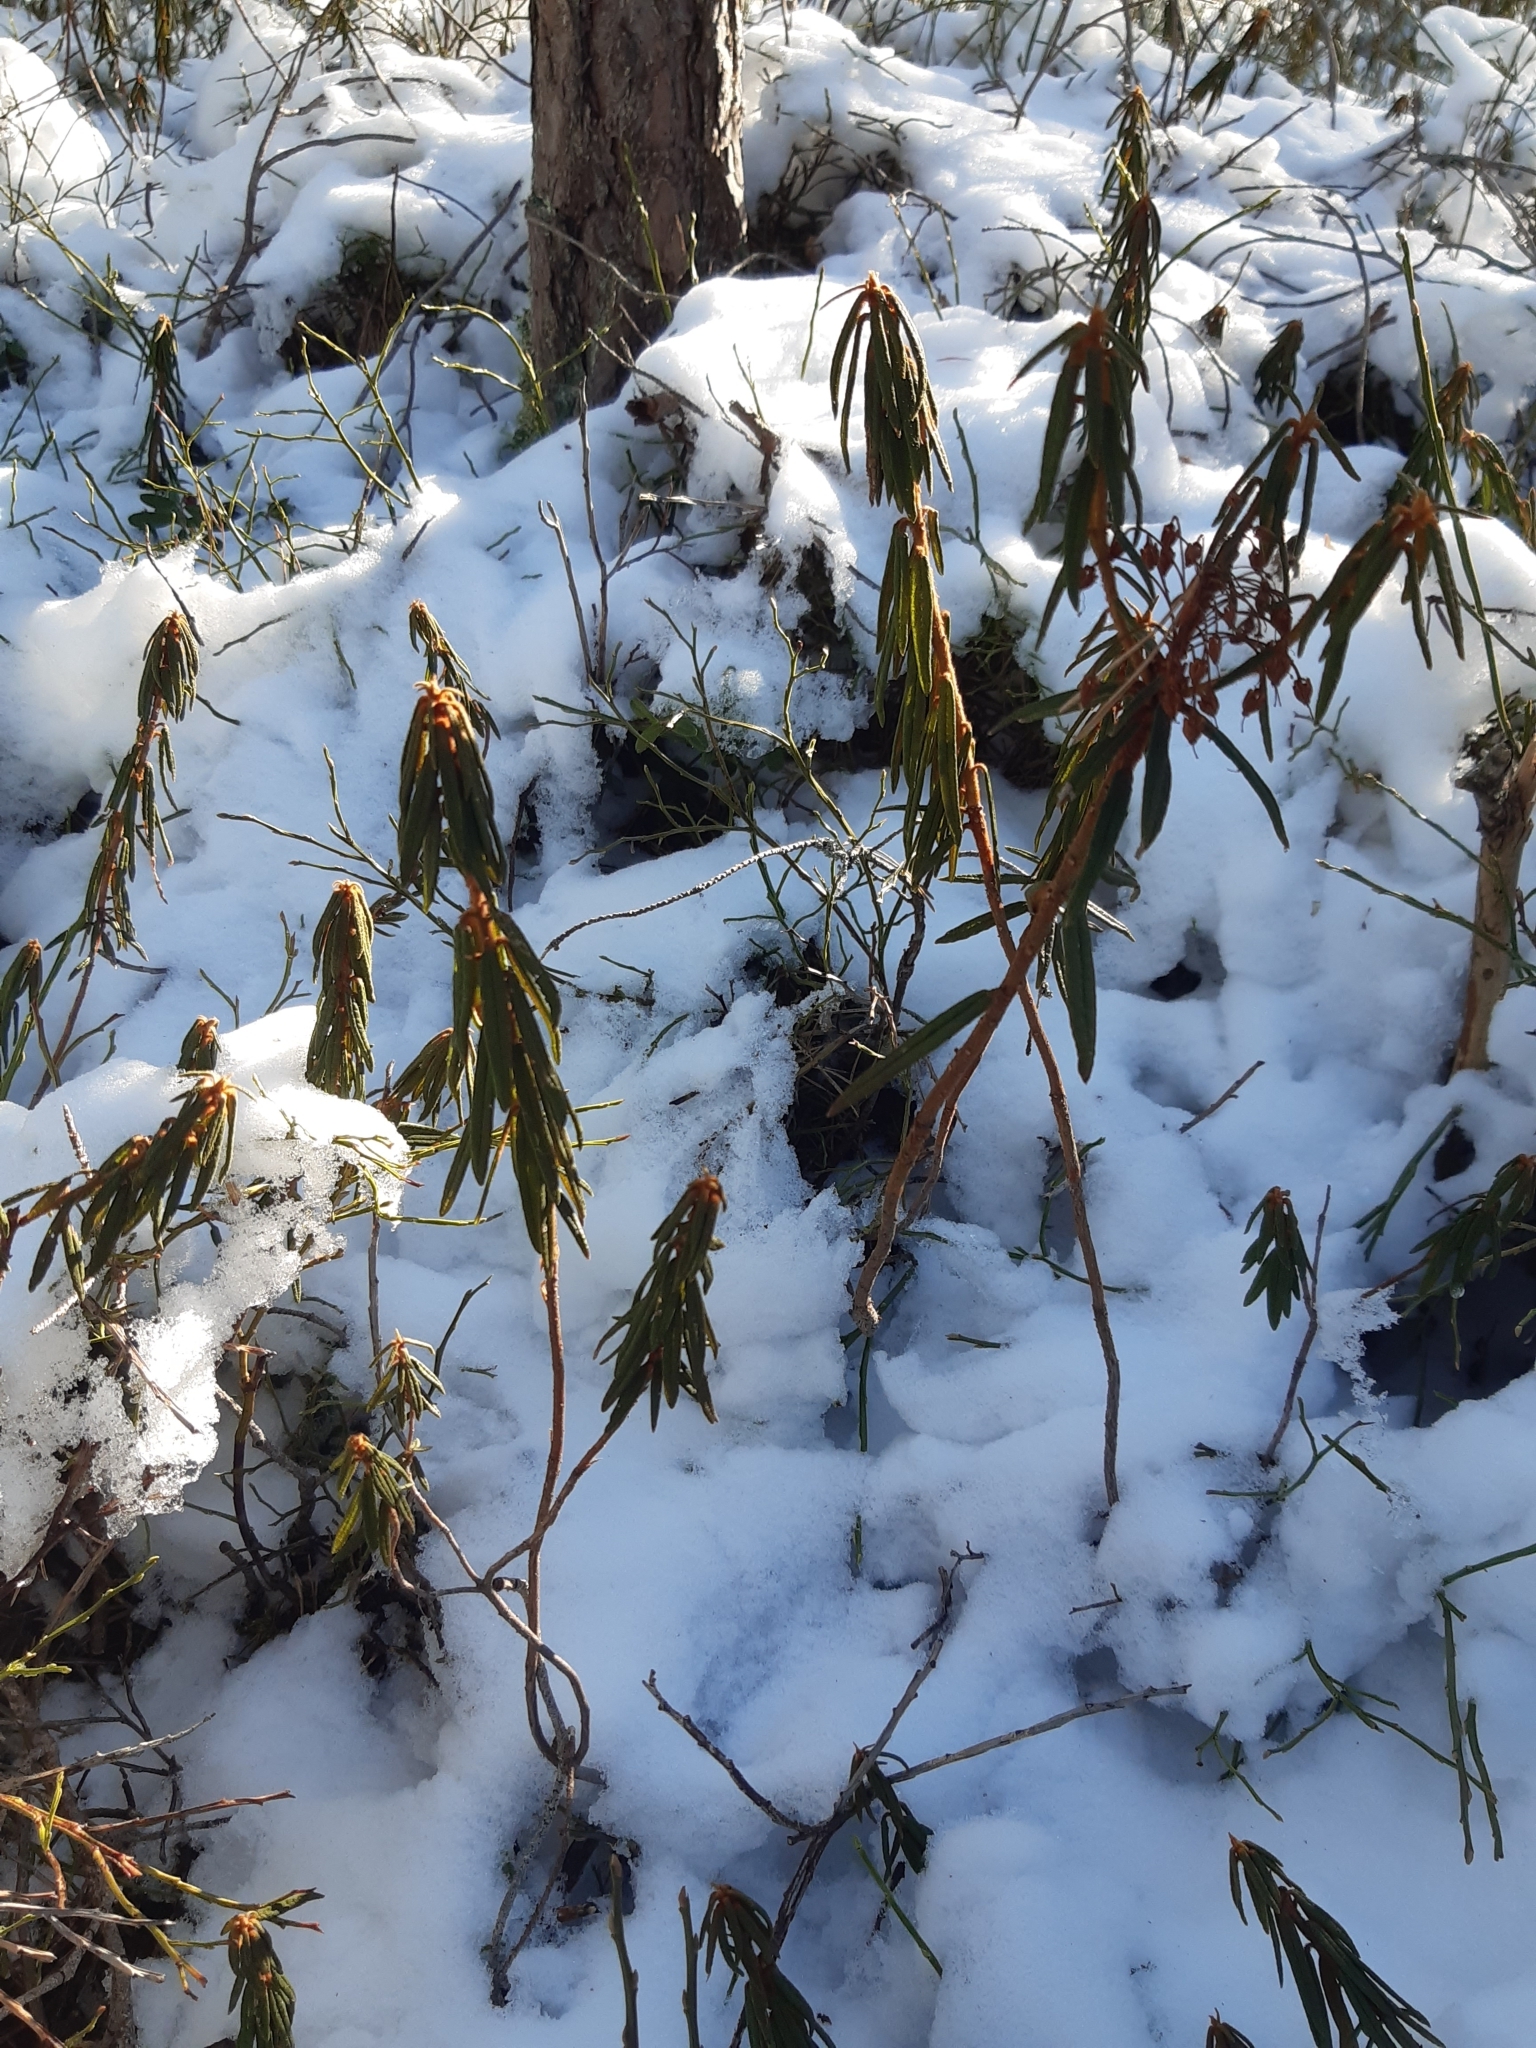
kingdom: Plantae
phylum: Tracheophyta
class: Magnoliopsida
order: Ericales
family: Ericaceae
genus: Rhododendron
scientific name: Rhododendron tomentosum
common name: Marsh labrador tea
